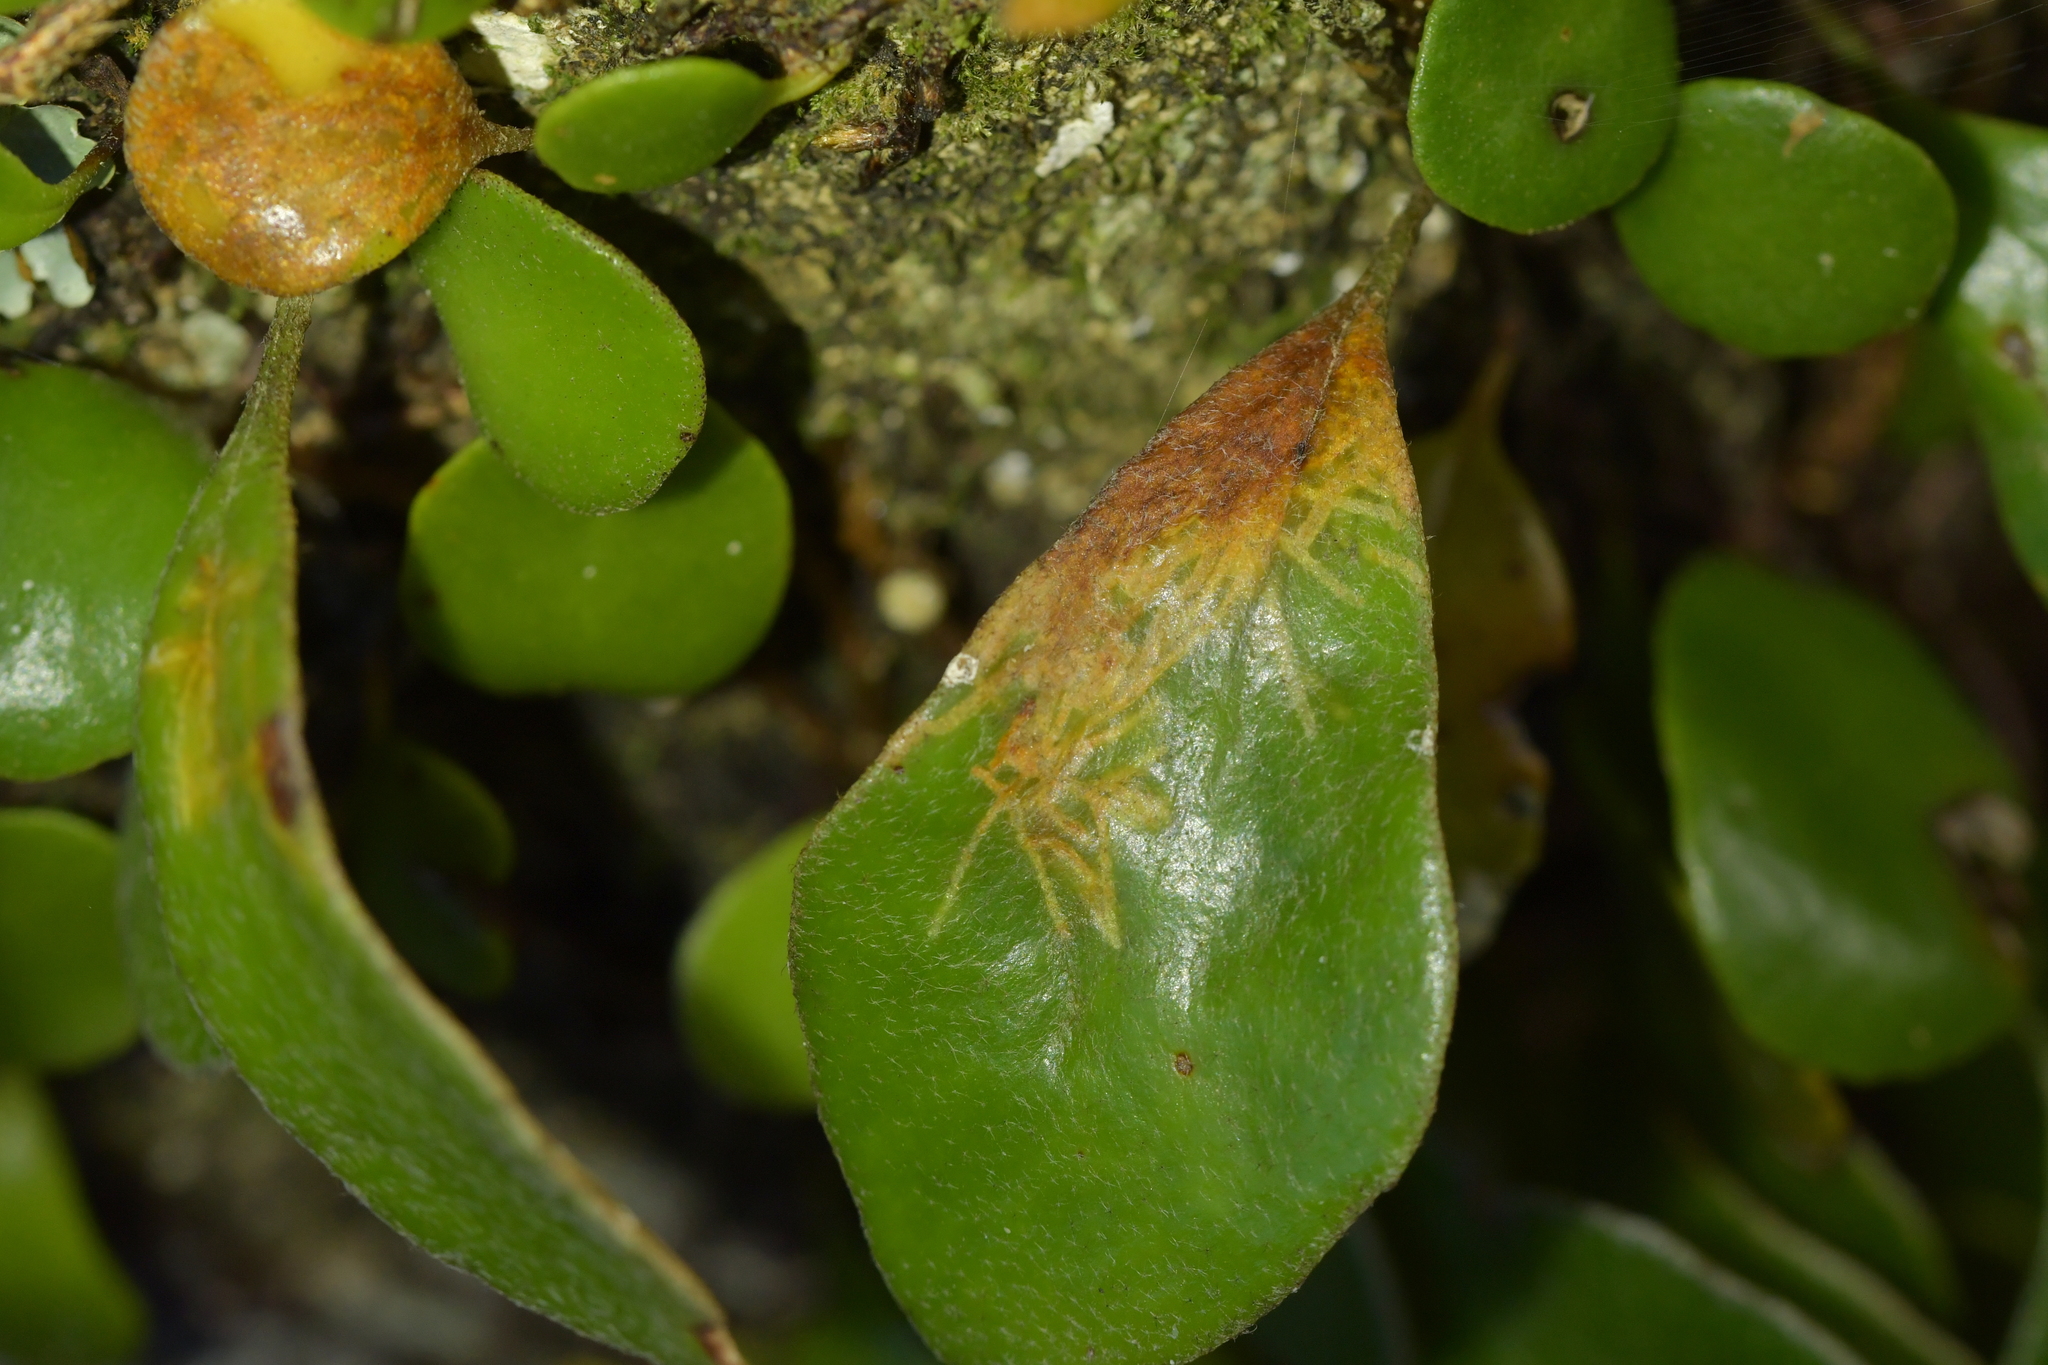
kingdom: Animalia
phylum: Arthropoda
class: Insecta
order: Lepidoptera
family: Tortricidae
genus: Philocryptica
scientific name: Philocryptica polypodii
